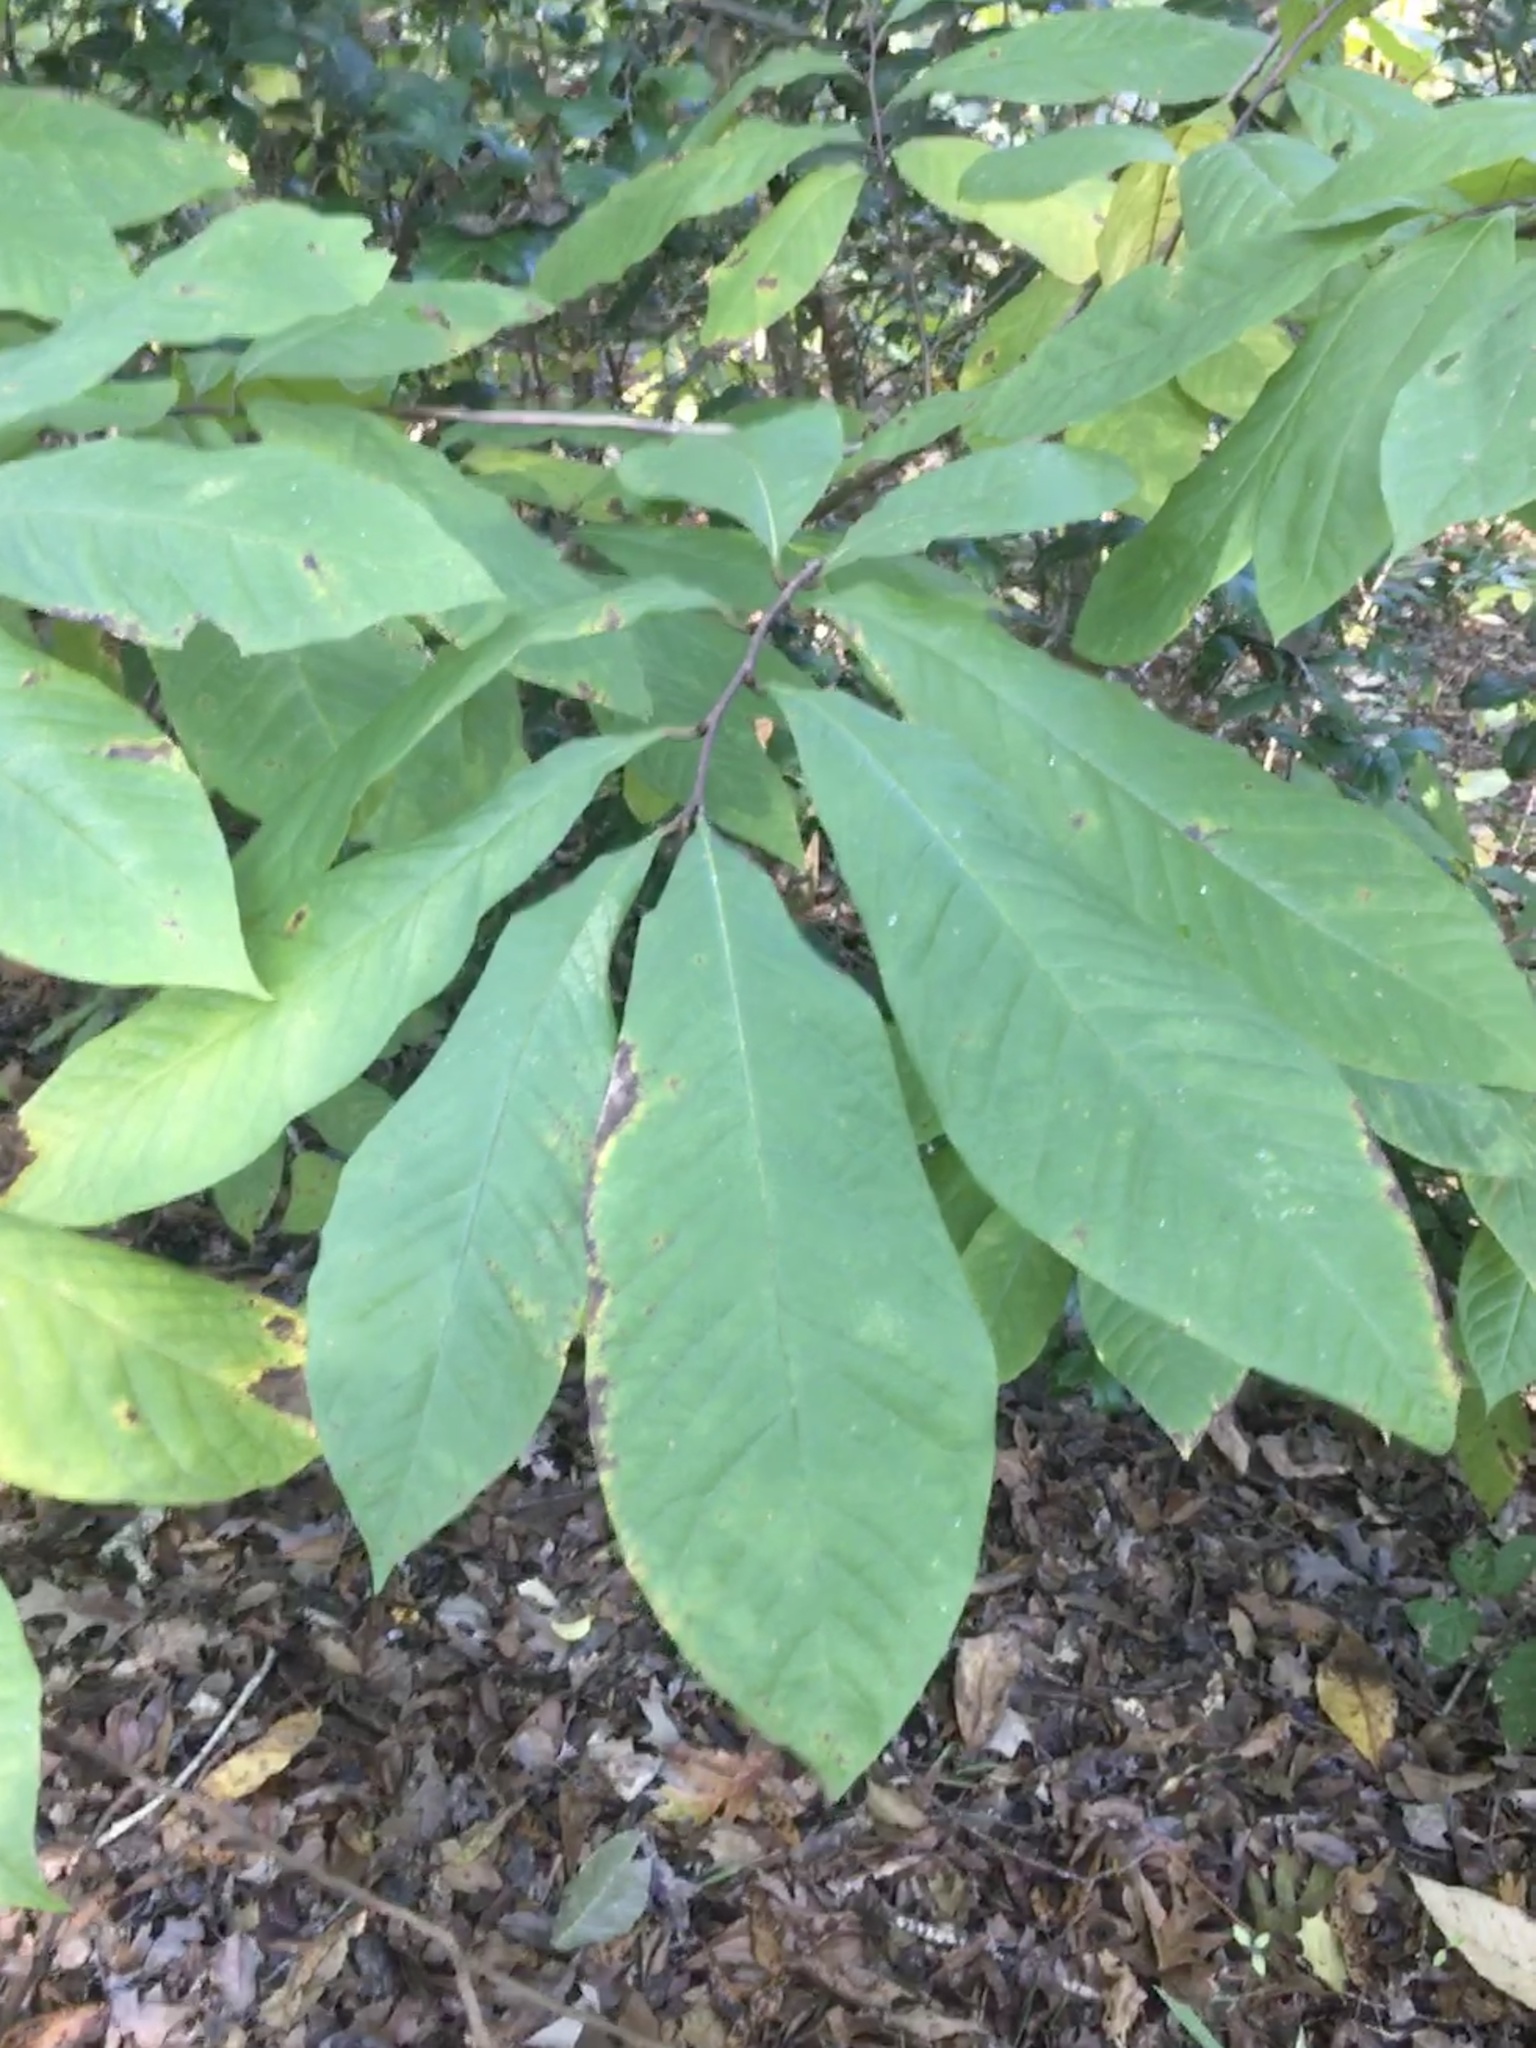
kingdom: Plantae
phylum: Tracheophyta
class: Magnoliopsida
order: Magnoliales
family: Annonaceae
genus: Asimina
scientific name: Asimina triloba
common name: Dog-banana
